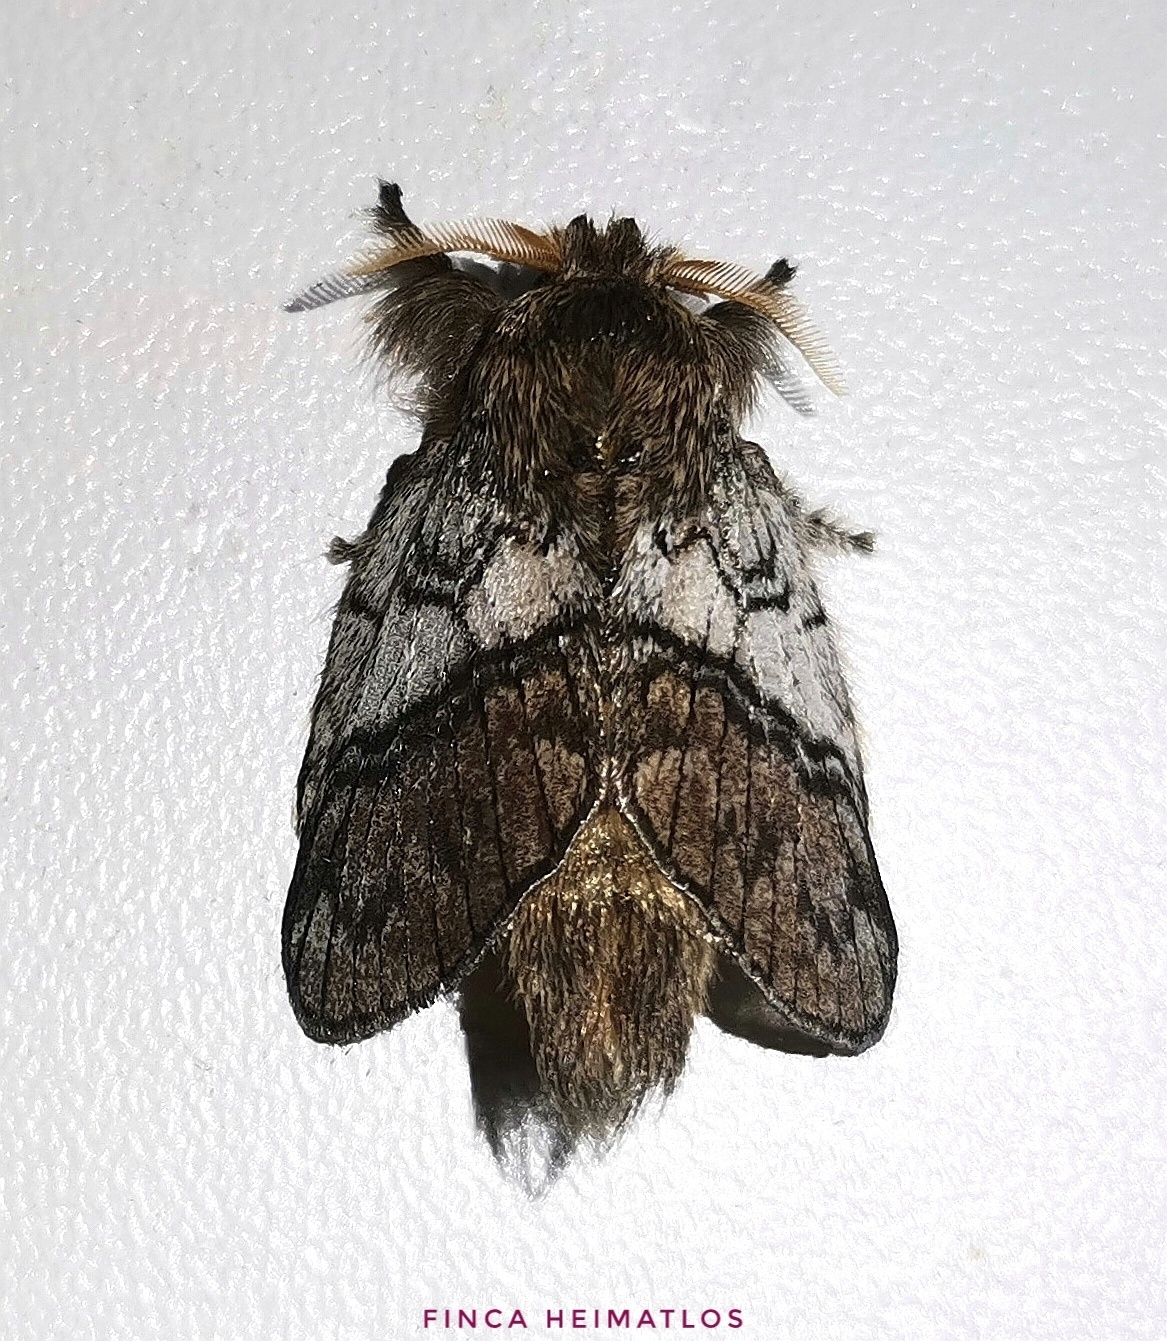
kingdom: Animalia
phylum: Arthropoda
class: Insecta
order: Lepidoptera
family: Lasiocampidae
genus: Euglyphis
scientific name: Euglyphis directa
